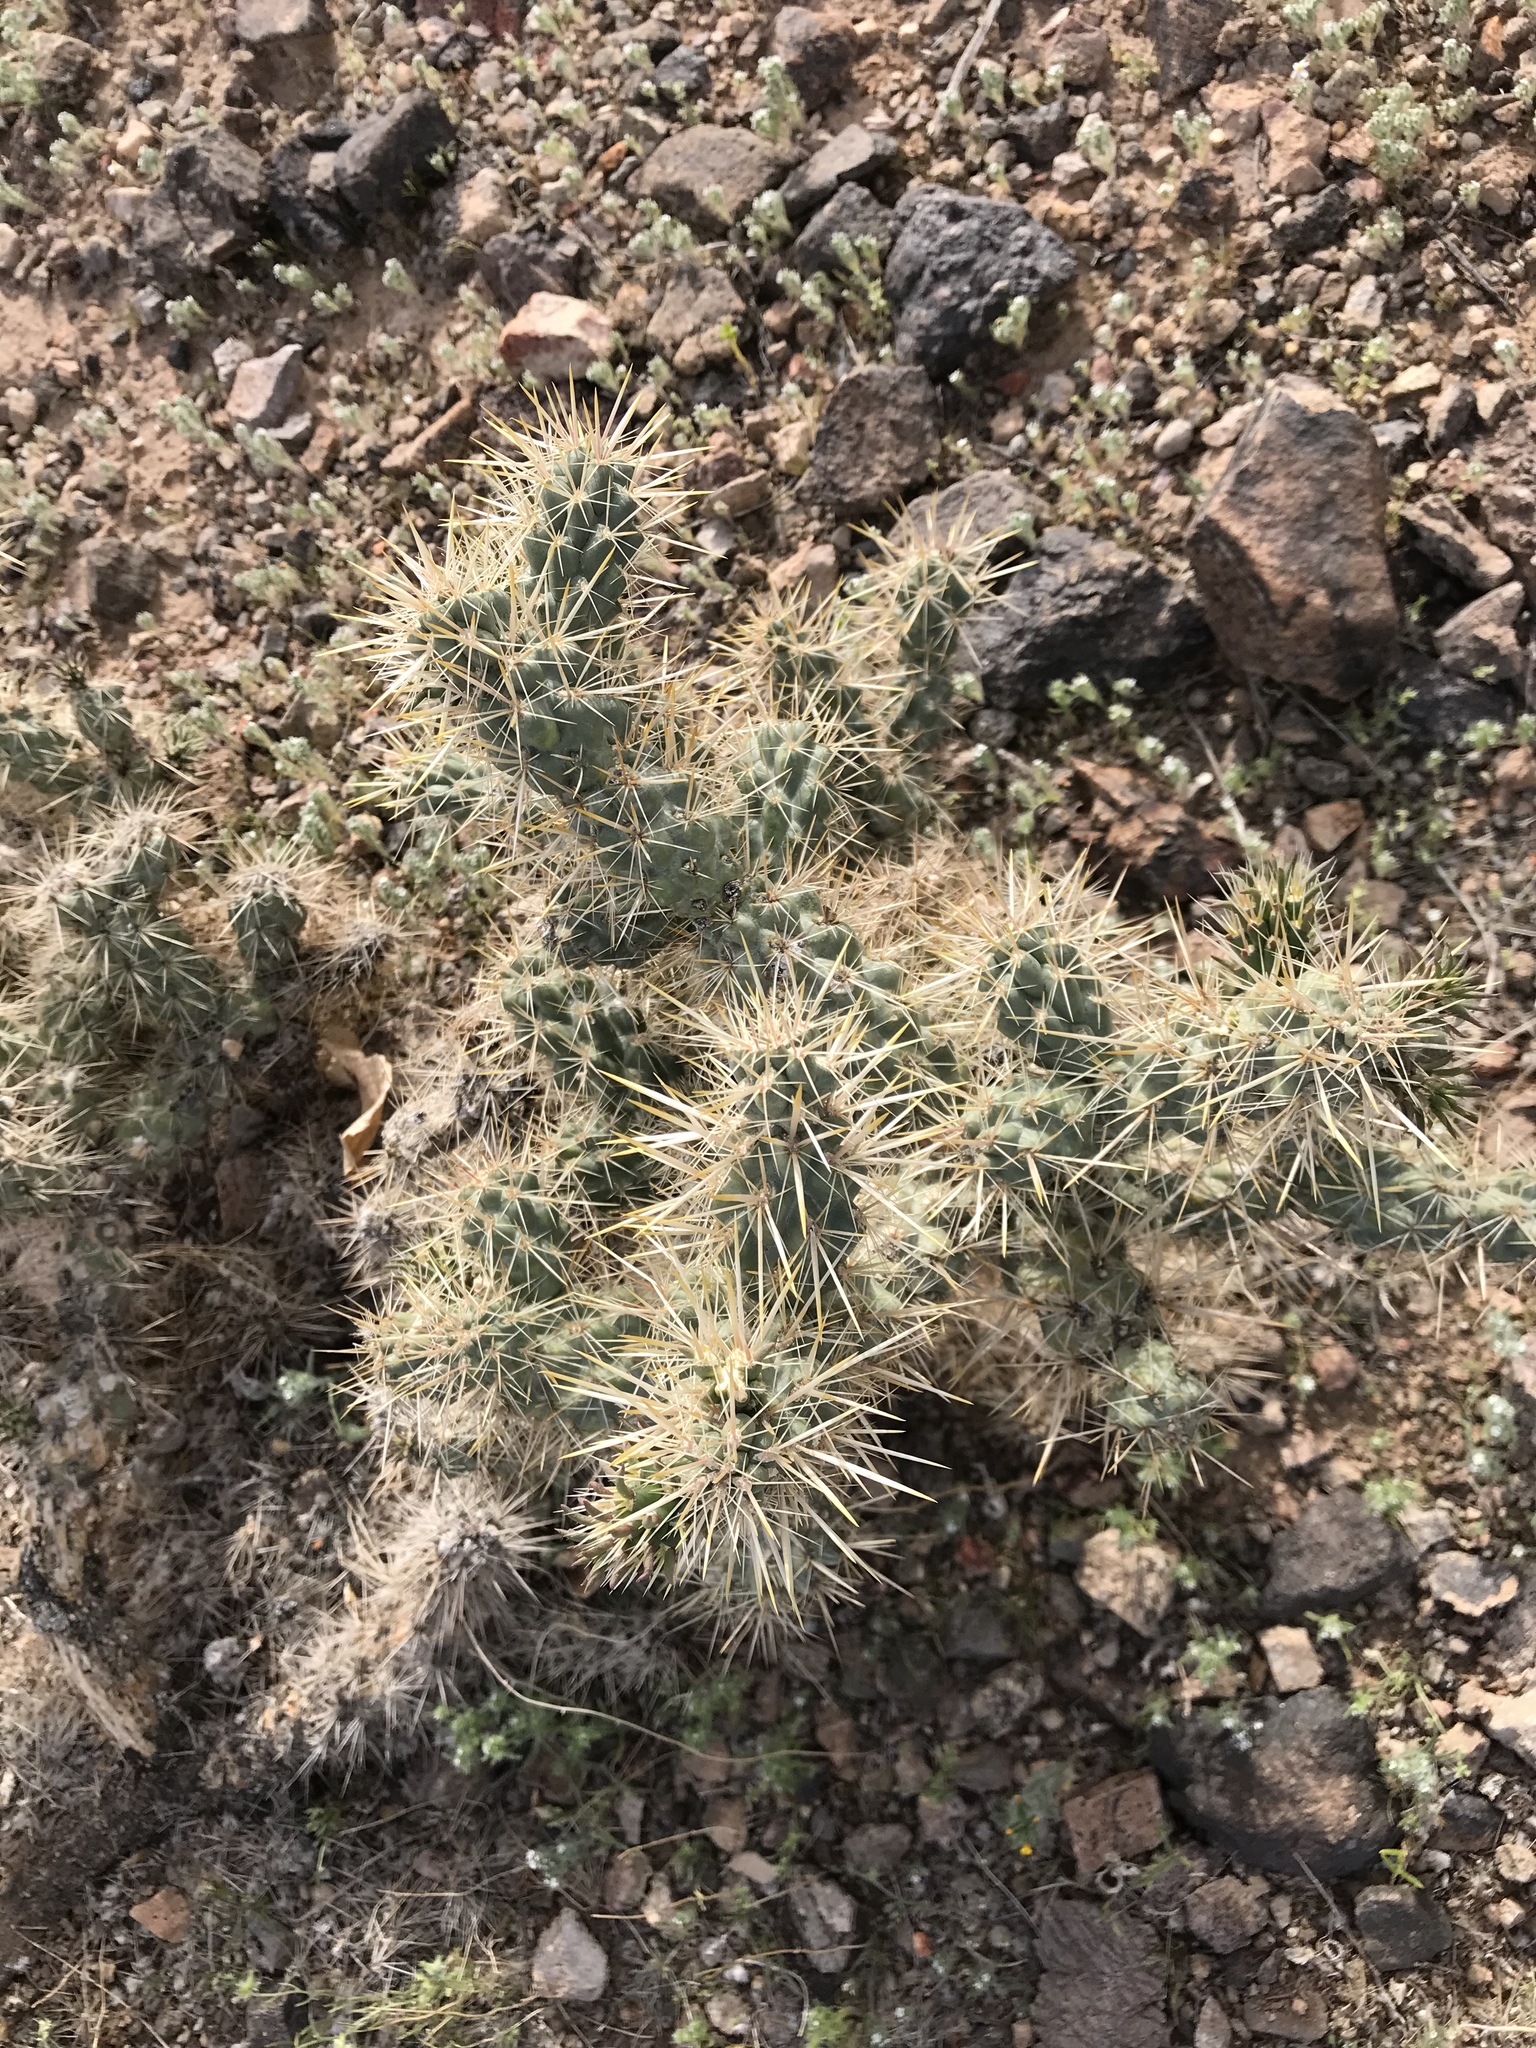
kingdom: Plantae
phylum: Tracheophyta
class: Magnoliopsida
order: Caryophyllales
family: Cactaceae
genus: Cylindropuntia
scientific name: Cylindropuntia echinocarpa
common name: Ground cholla
